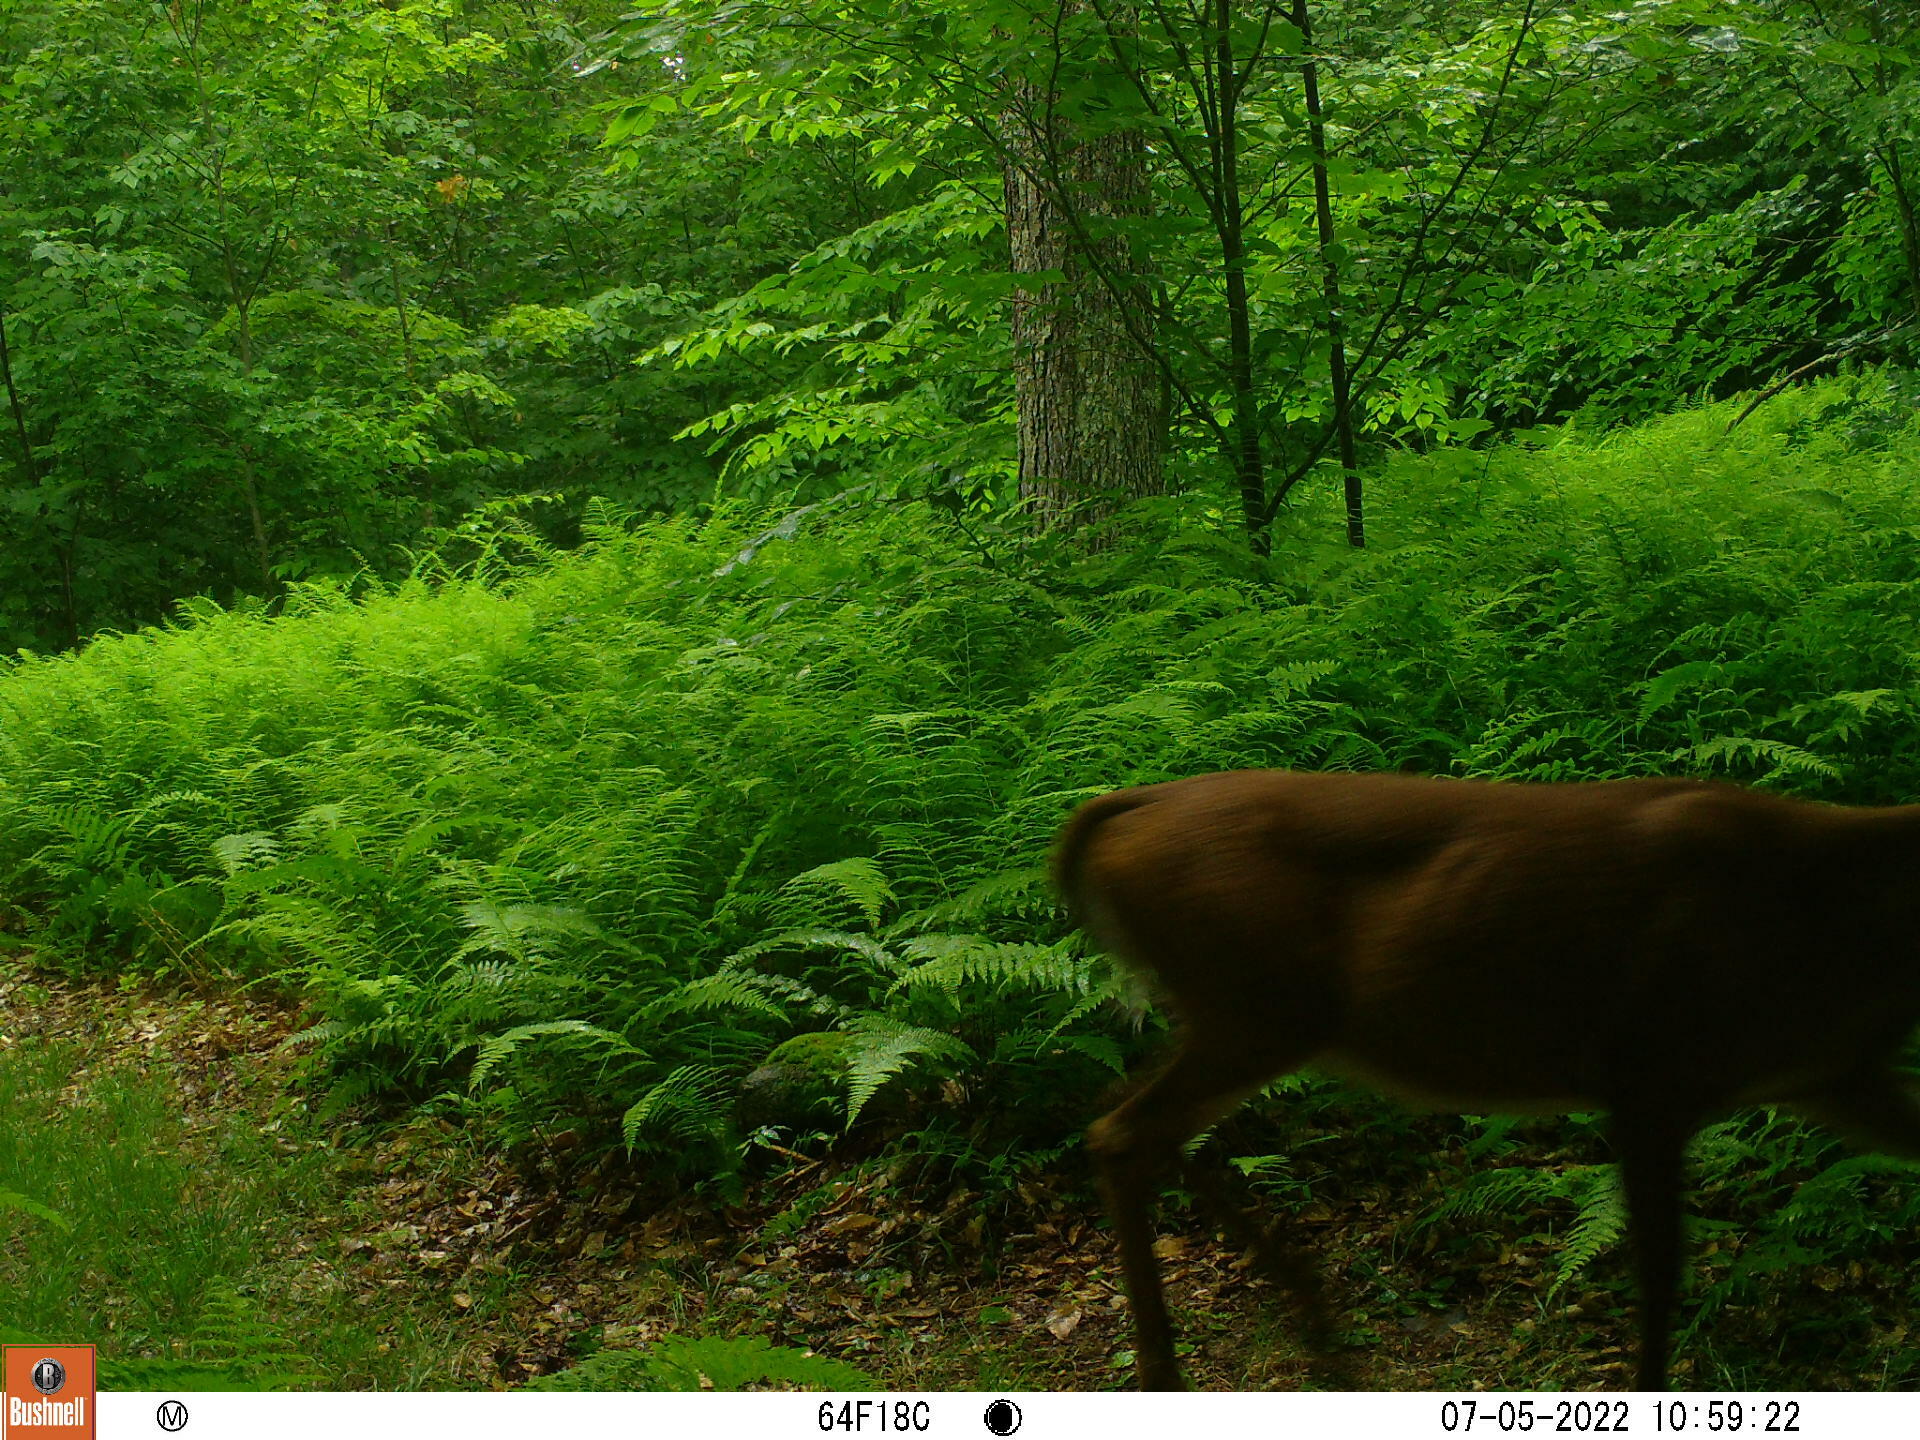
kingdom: Animalia
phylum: Chordata
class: Mammalia
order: Artiodactyla
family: Cervidae
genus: Odocoileus
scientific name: Odocoileus virginianus
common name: White-tailed deer
